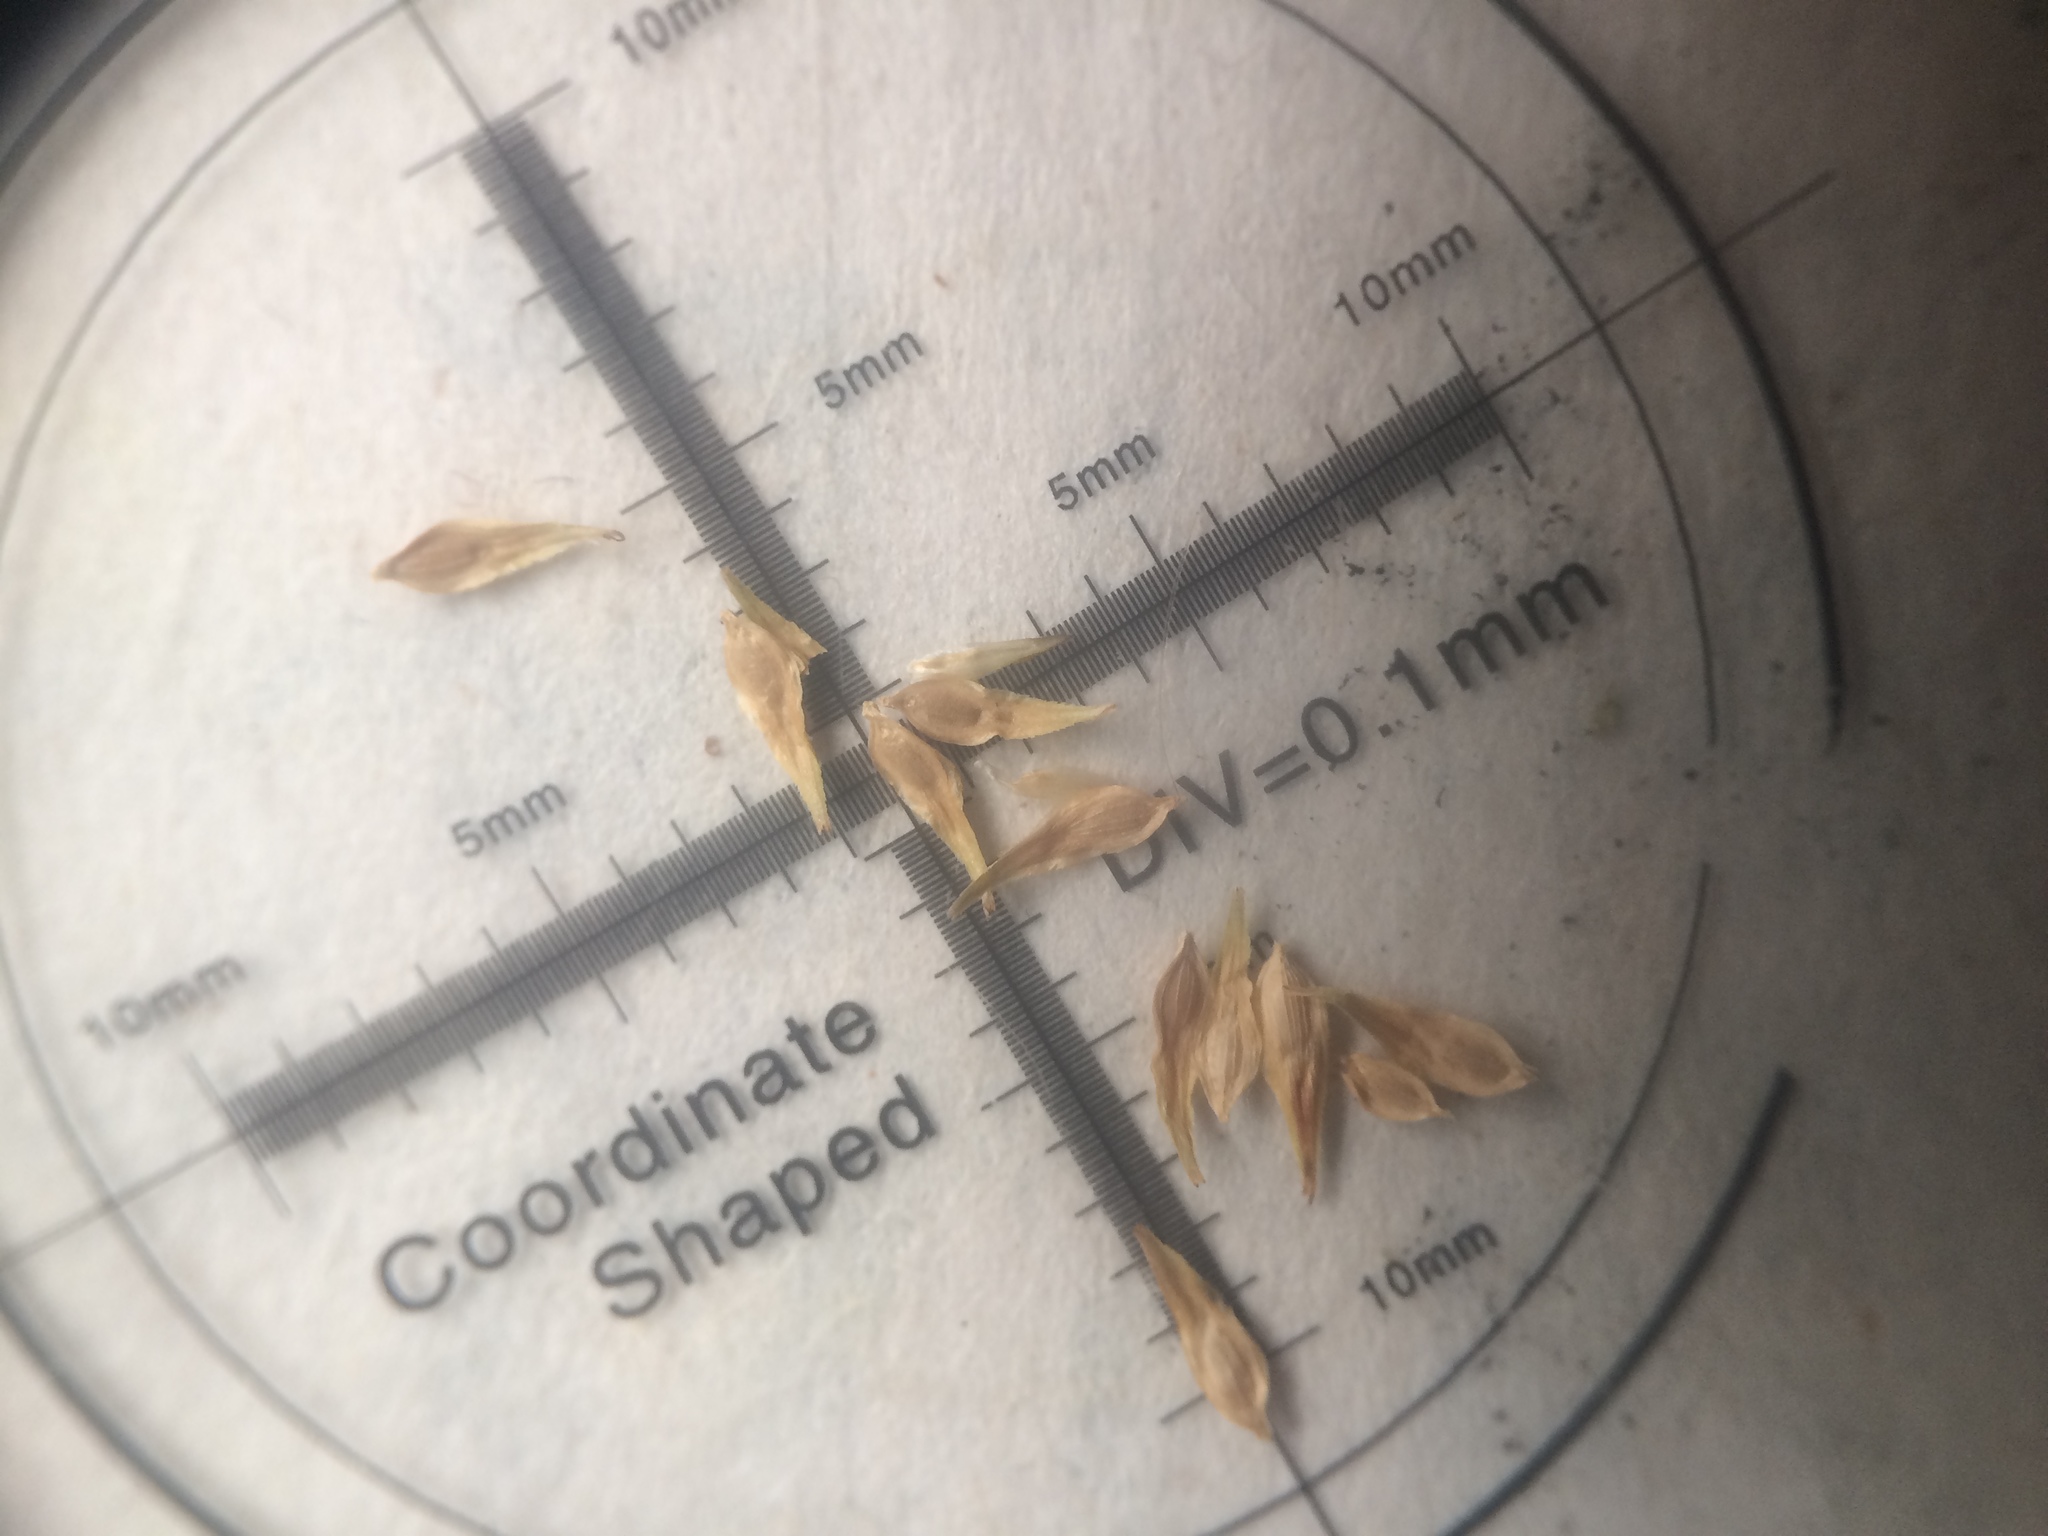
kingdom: Plantae
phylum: Tracheophyta
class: Liliopsida
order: Poales
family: Cyperaceae
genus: Carex
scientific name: Carex projecta
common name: Loose-headed oval sedge
